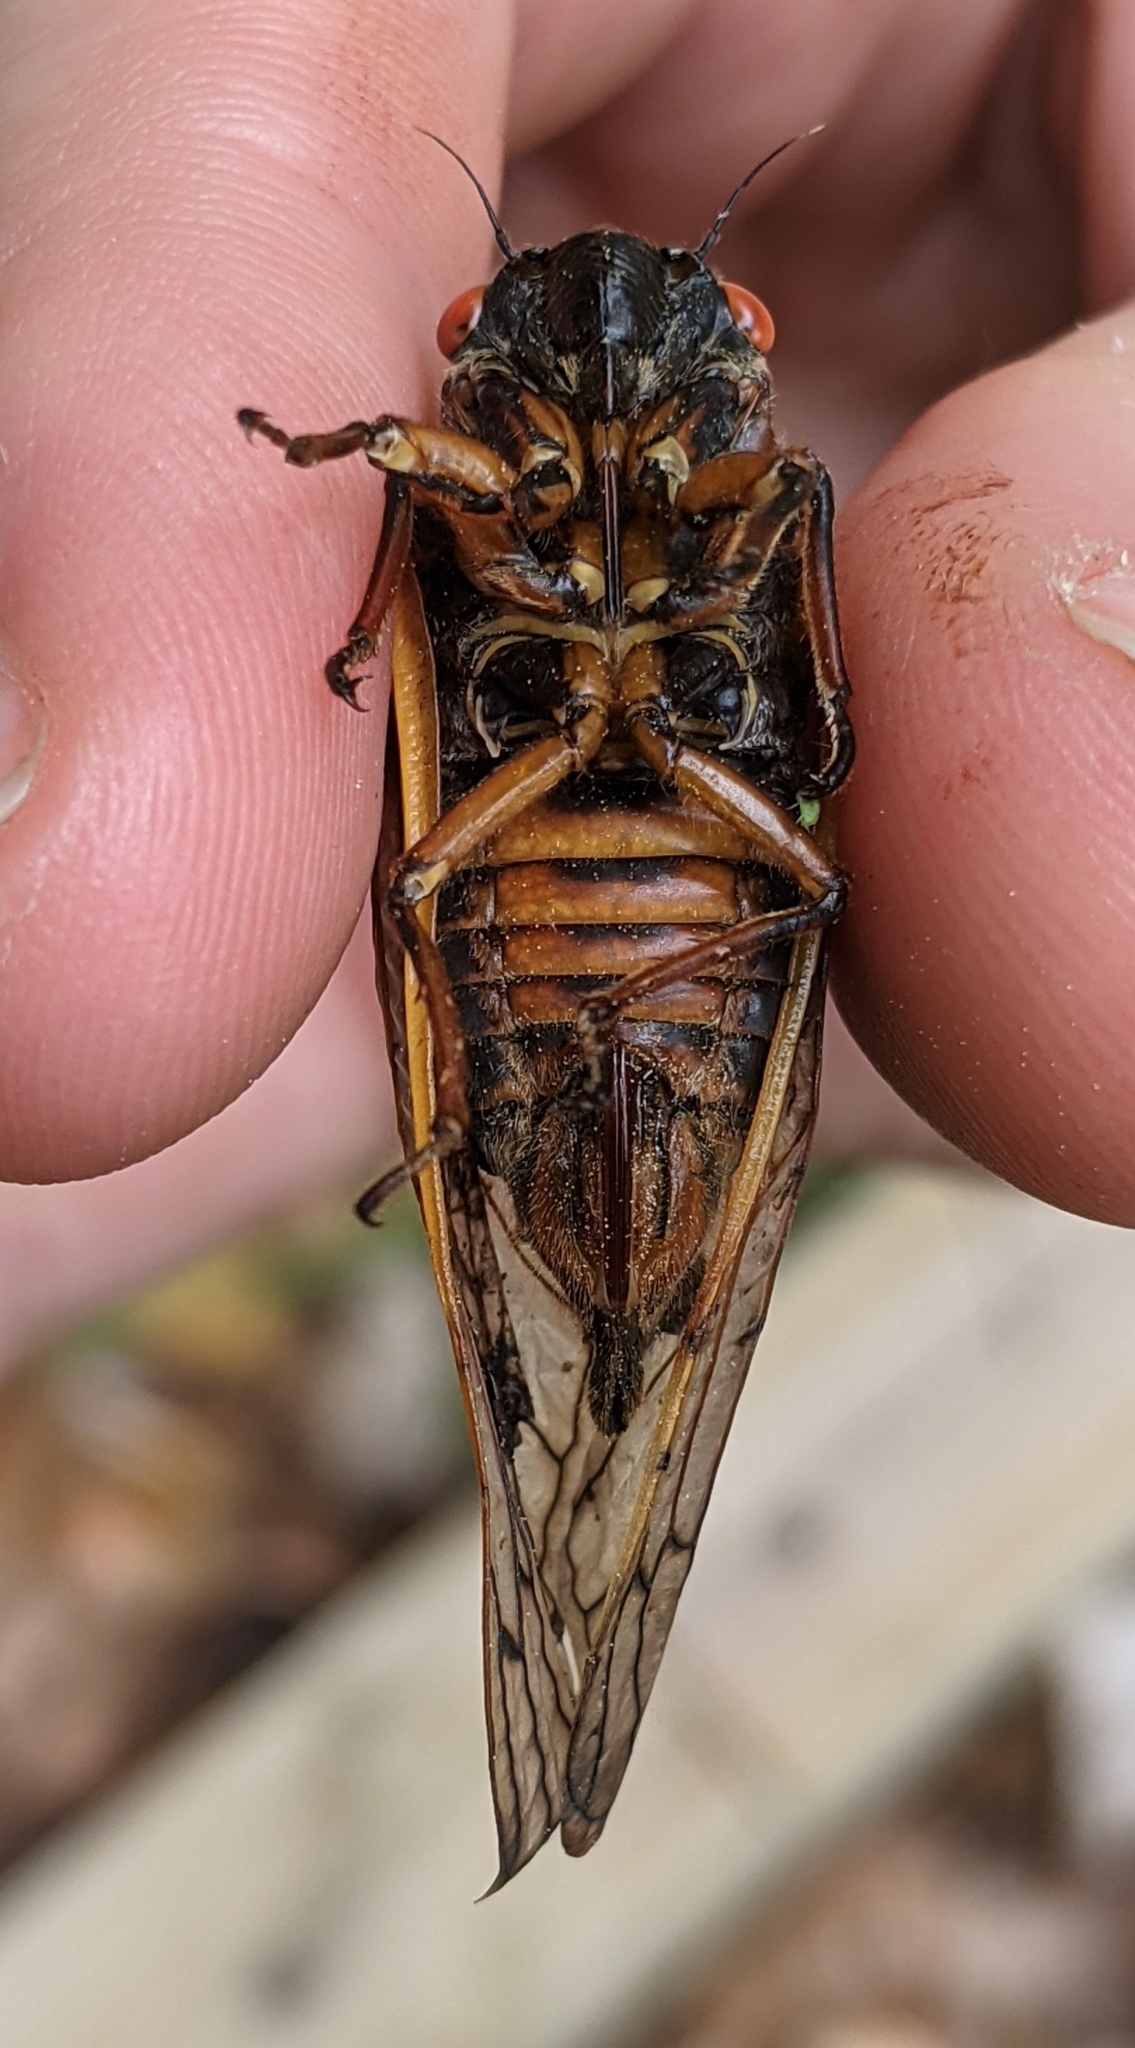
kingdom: Animalia
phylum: Arthropoda
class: Insecta
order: Hemiptera
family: Cicadidae
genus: Magicicada
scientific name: Magicicada septendecim
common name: Periodical cicada
